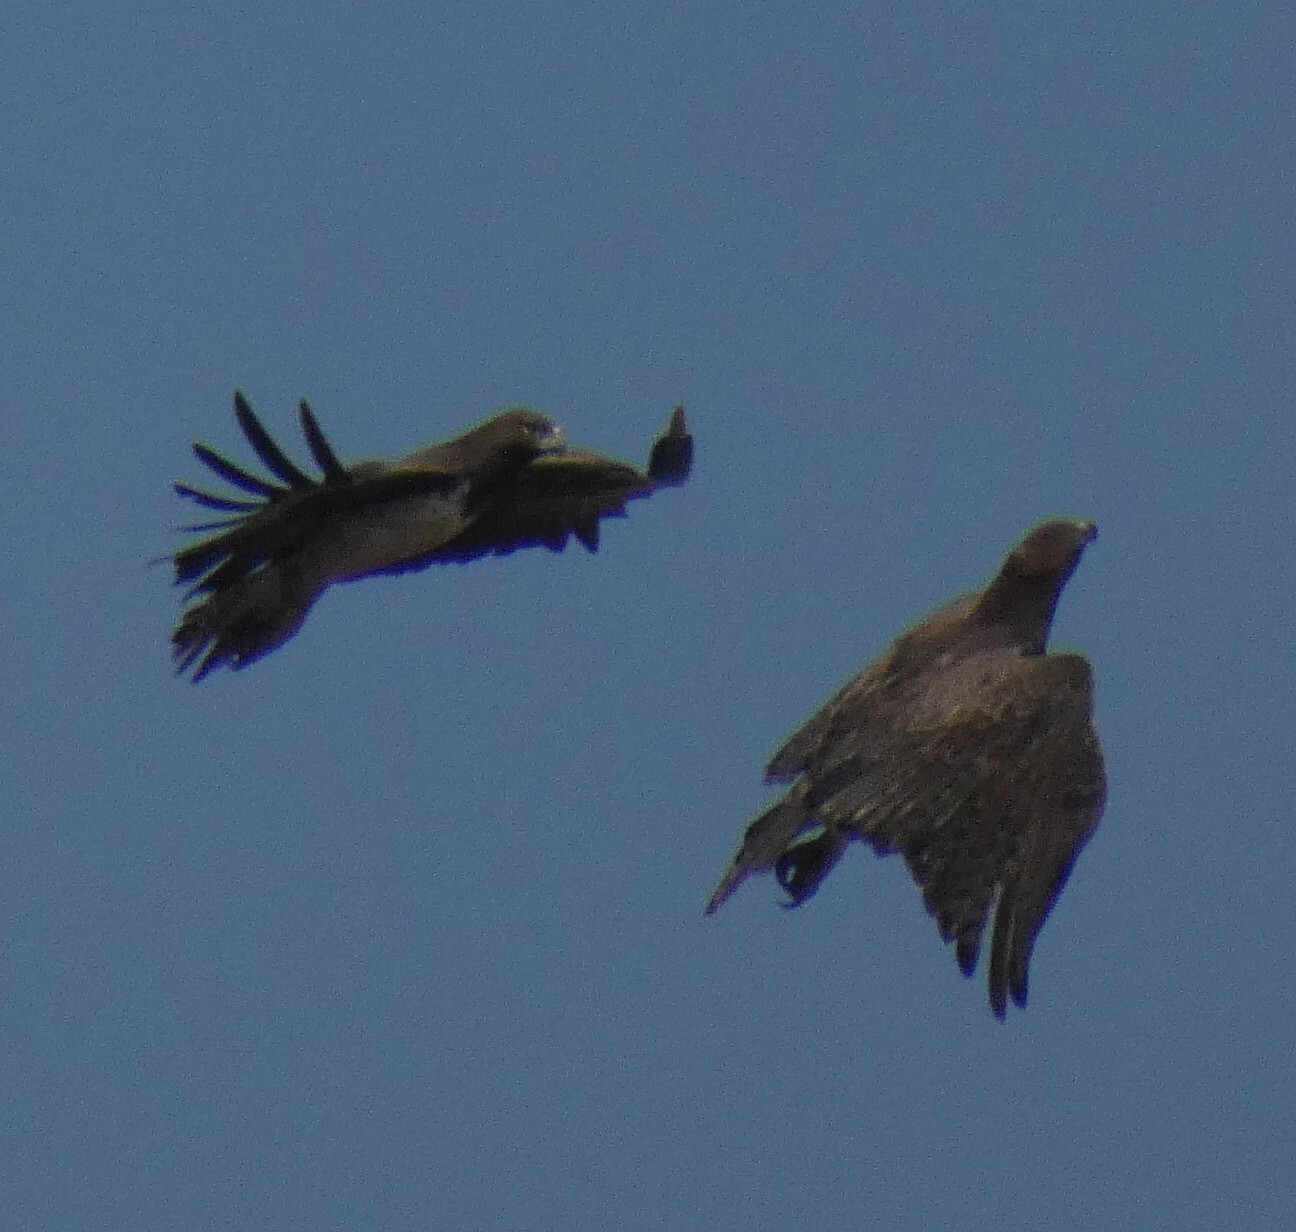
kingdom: Animalia
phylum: Chordata
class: Aves
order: Accipitriformes
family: Accipitridae
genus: Polemaetus
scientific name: Polemaetus bellicosus
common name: Martial eagle
